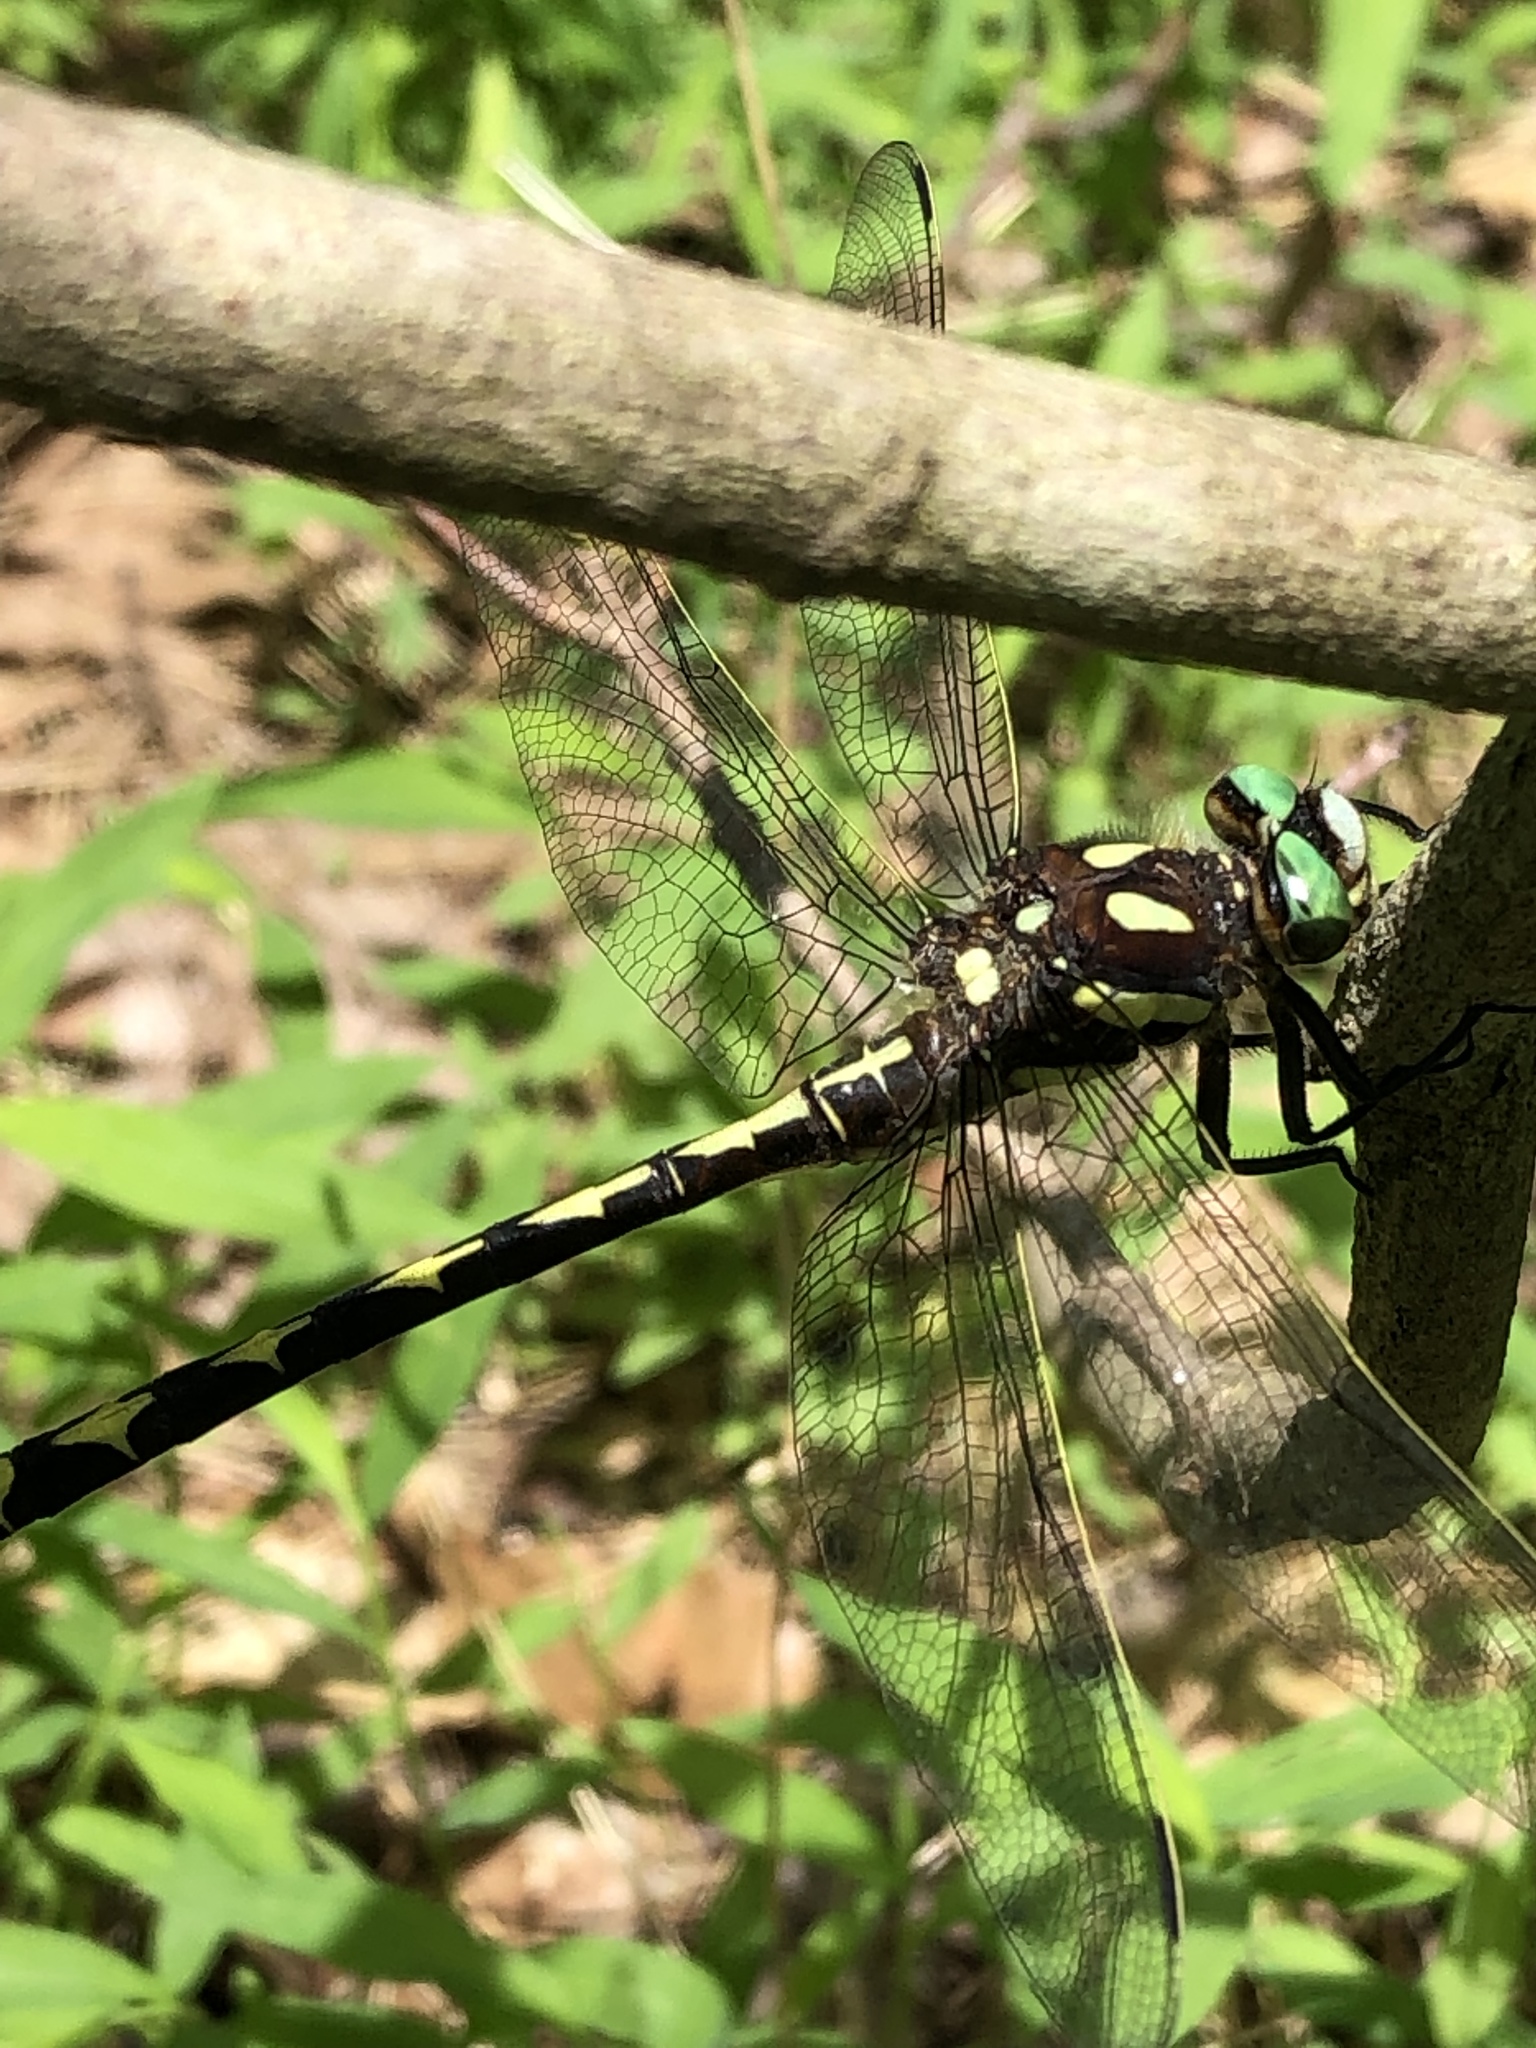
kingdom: Animalia
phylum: Arthropoda
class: Insecta
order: Odonata
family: Cordulegastridae
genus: Cordulegaster
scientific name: Cordulegaster obliqua
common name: Arrowhead spiketail
